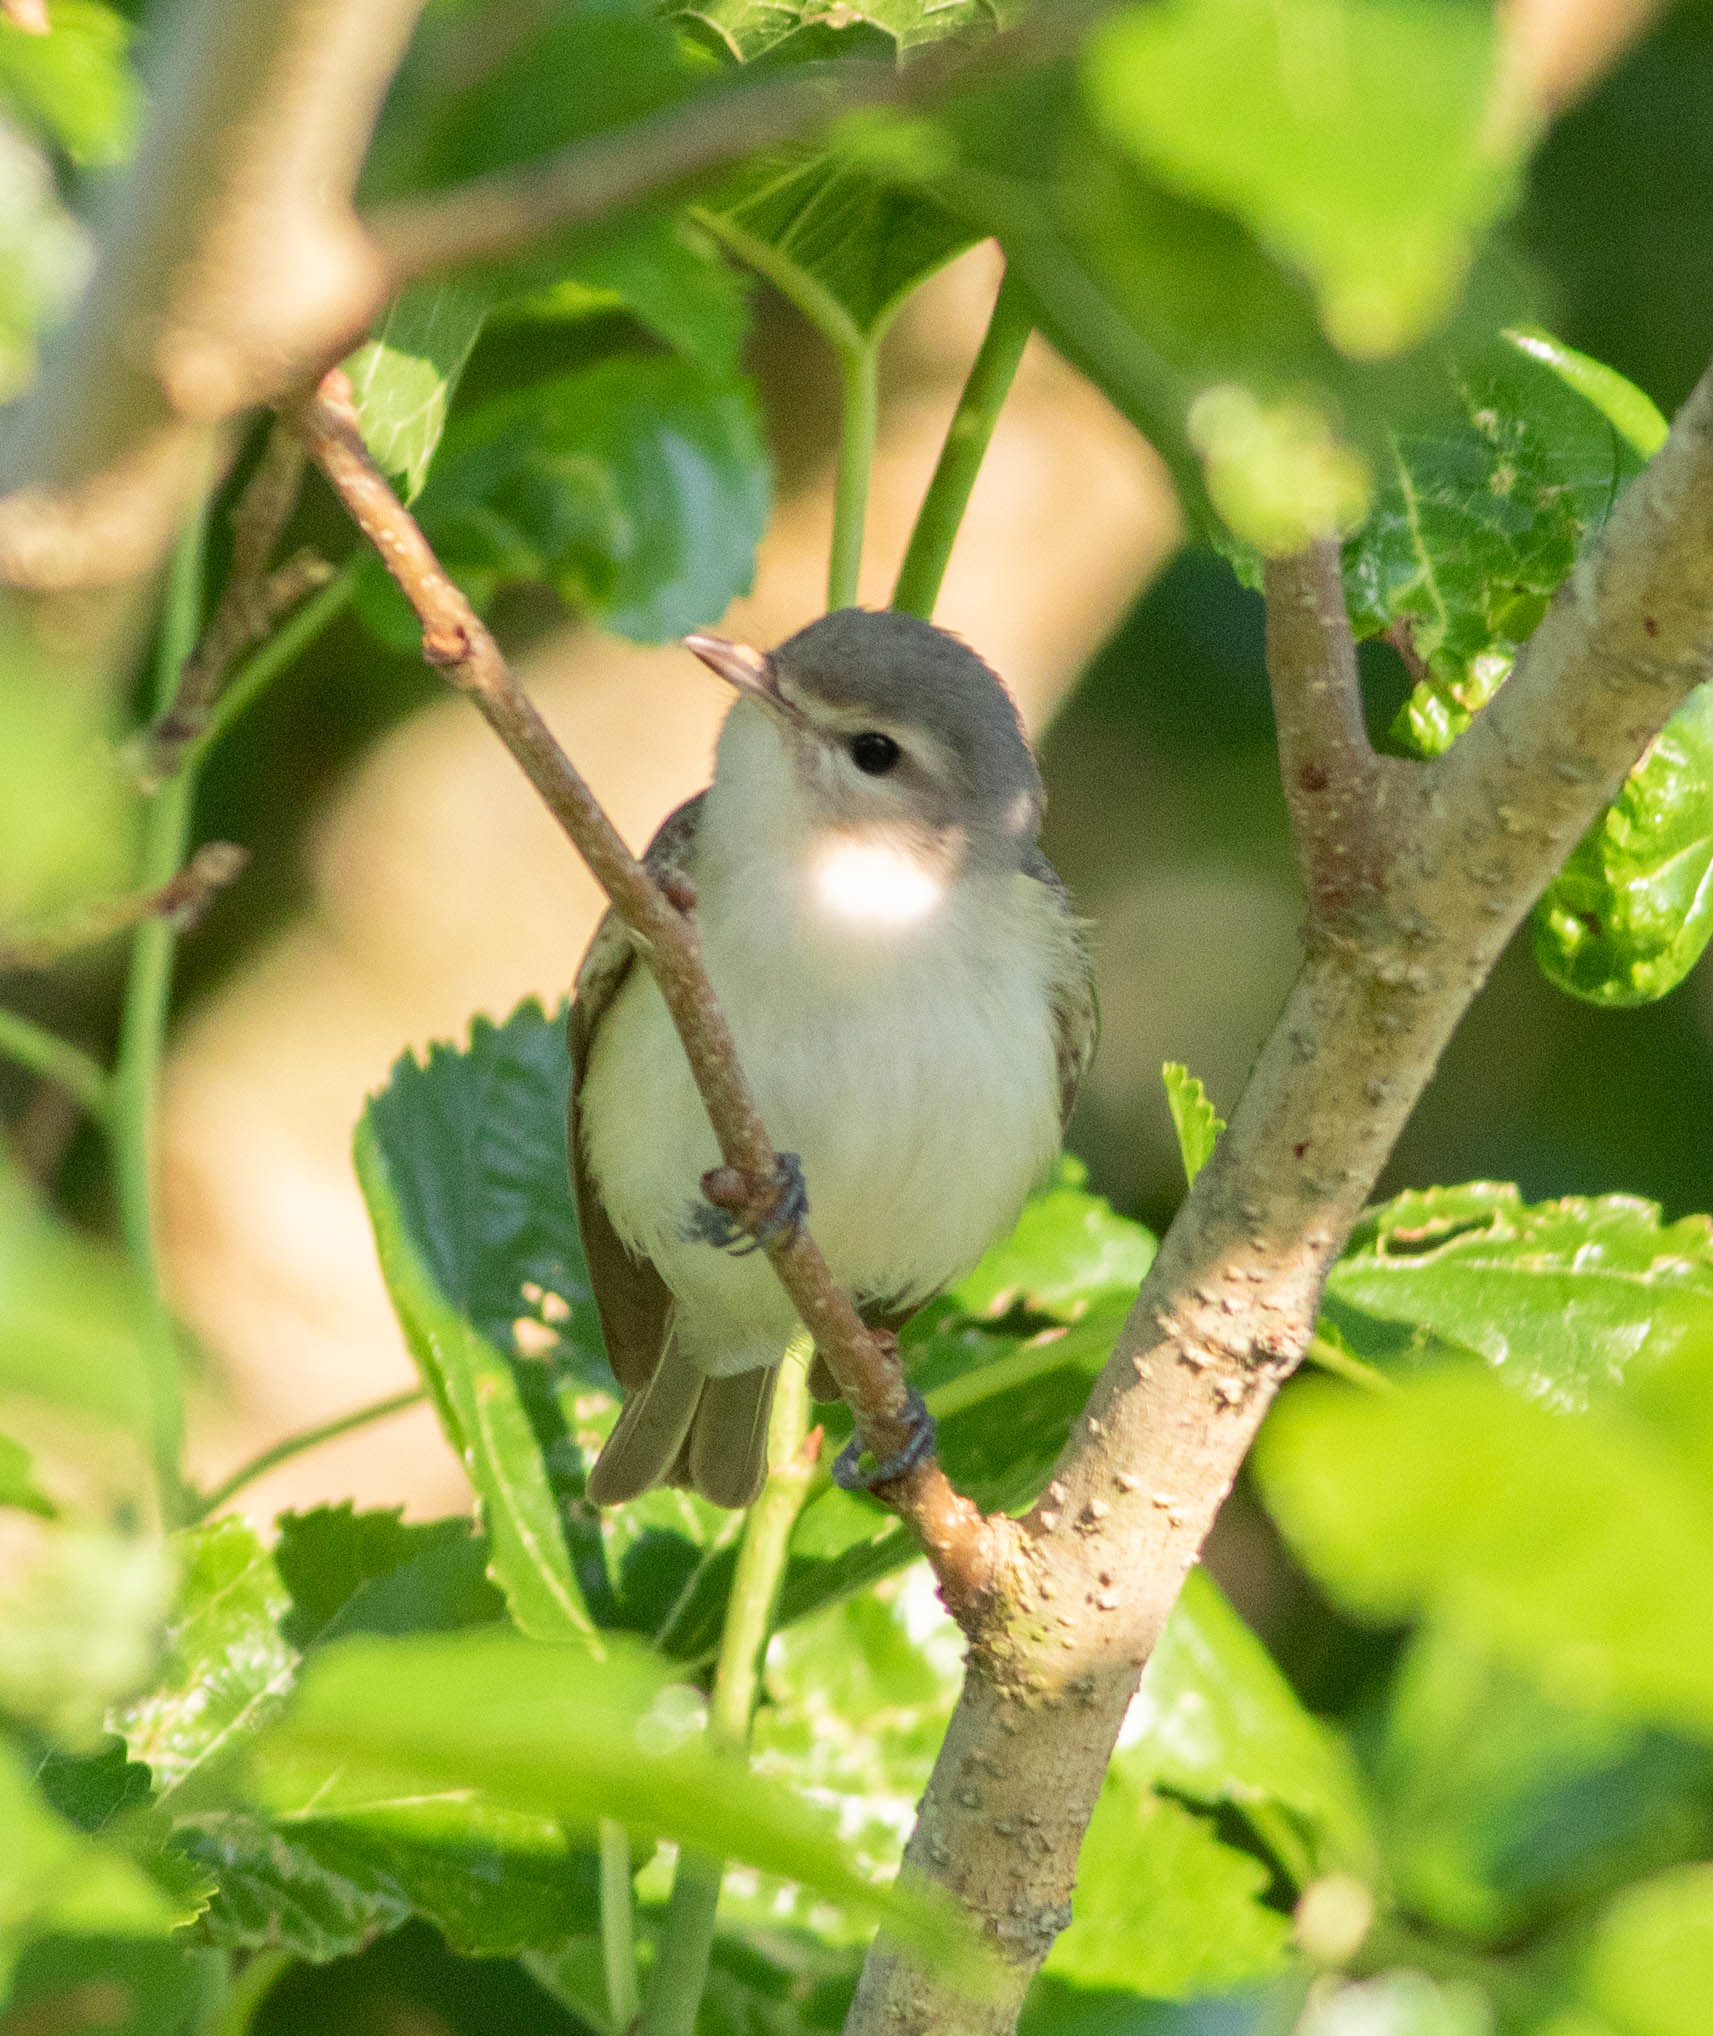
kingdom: Animalia
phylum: Chordata
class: Aves
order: Passeriformes
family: Vireonidae
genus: Vireo
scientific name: Vireo gilvus
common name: Warbling vireo
